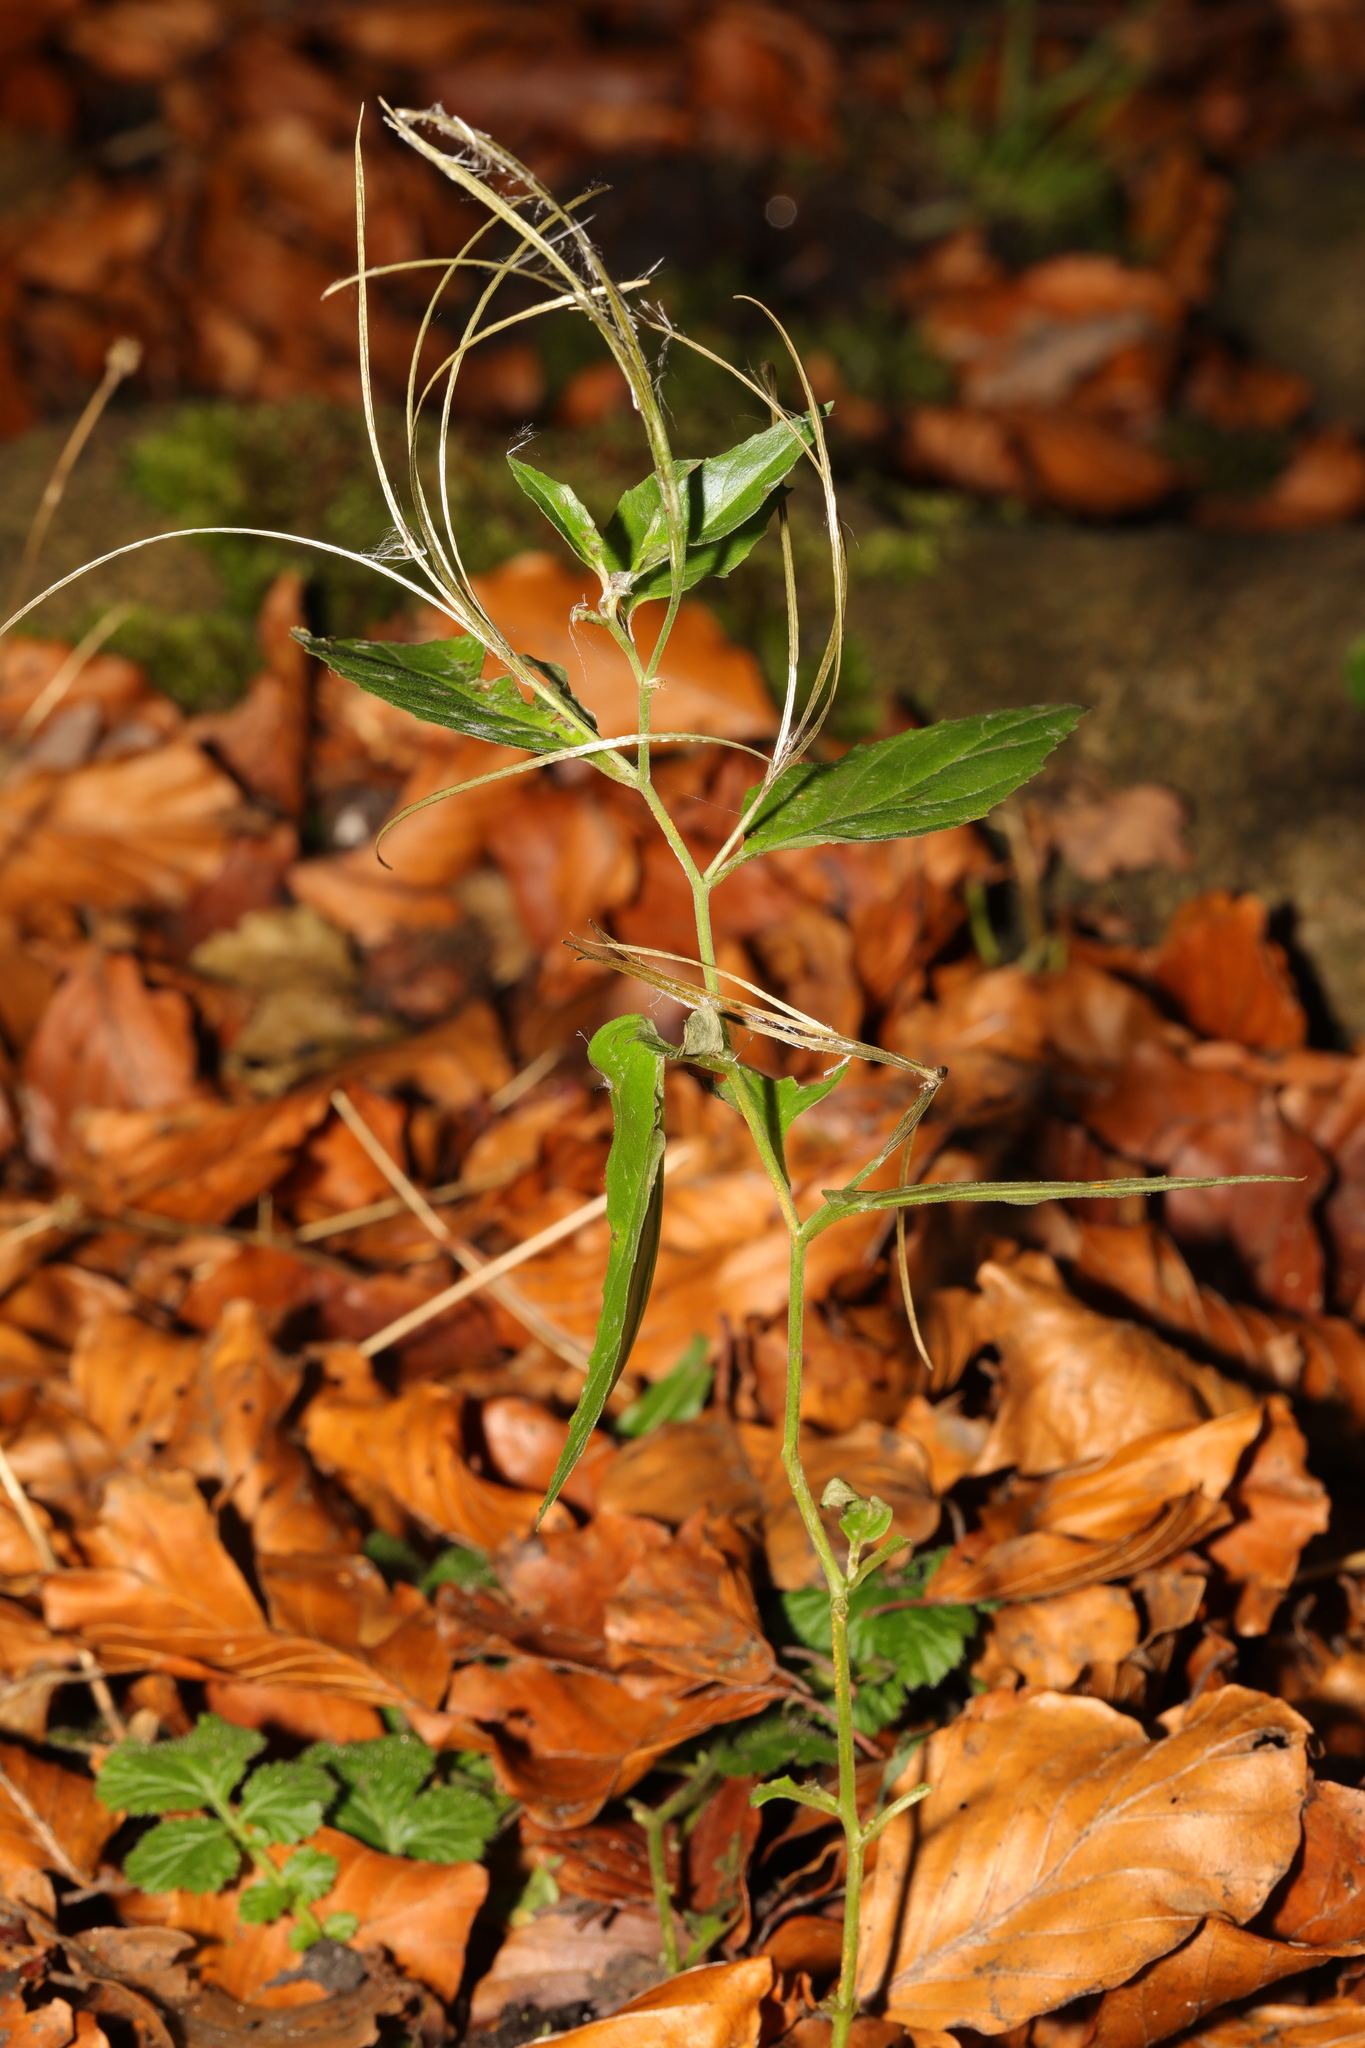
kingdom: Plantae
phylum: Tracheophyta
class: Magnoliopsida
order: Myrtales
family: Onagraceae
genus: Epilobium
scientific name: Epilobium montanum
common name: Broad-leaved willowherb
